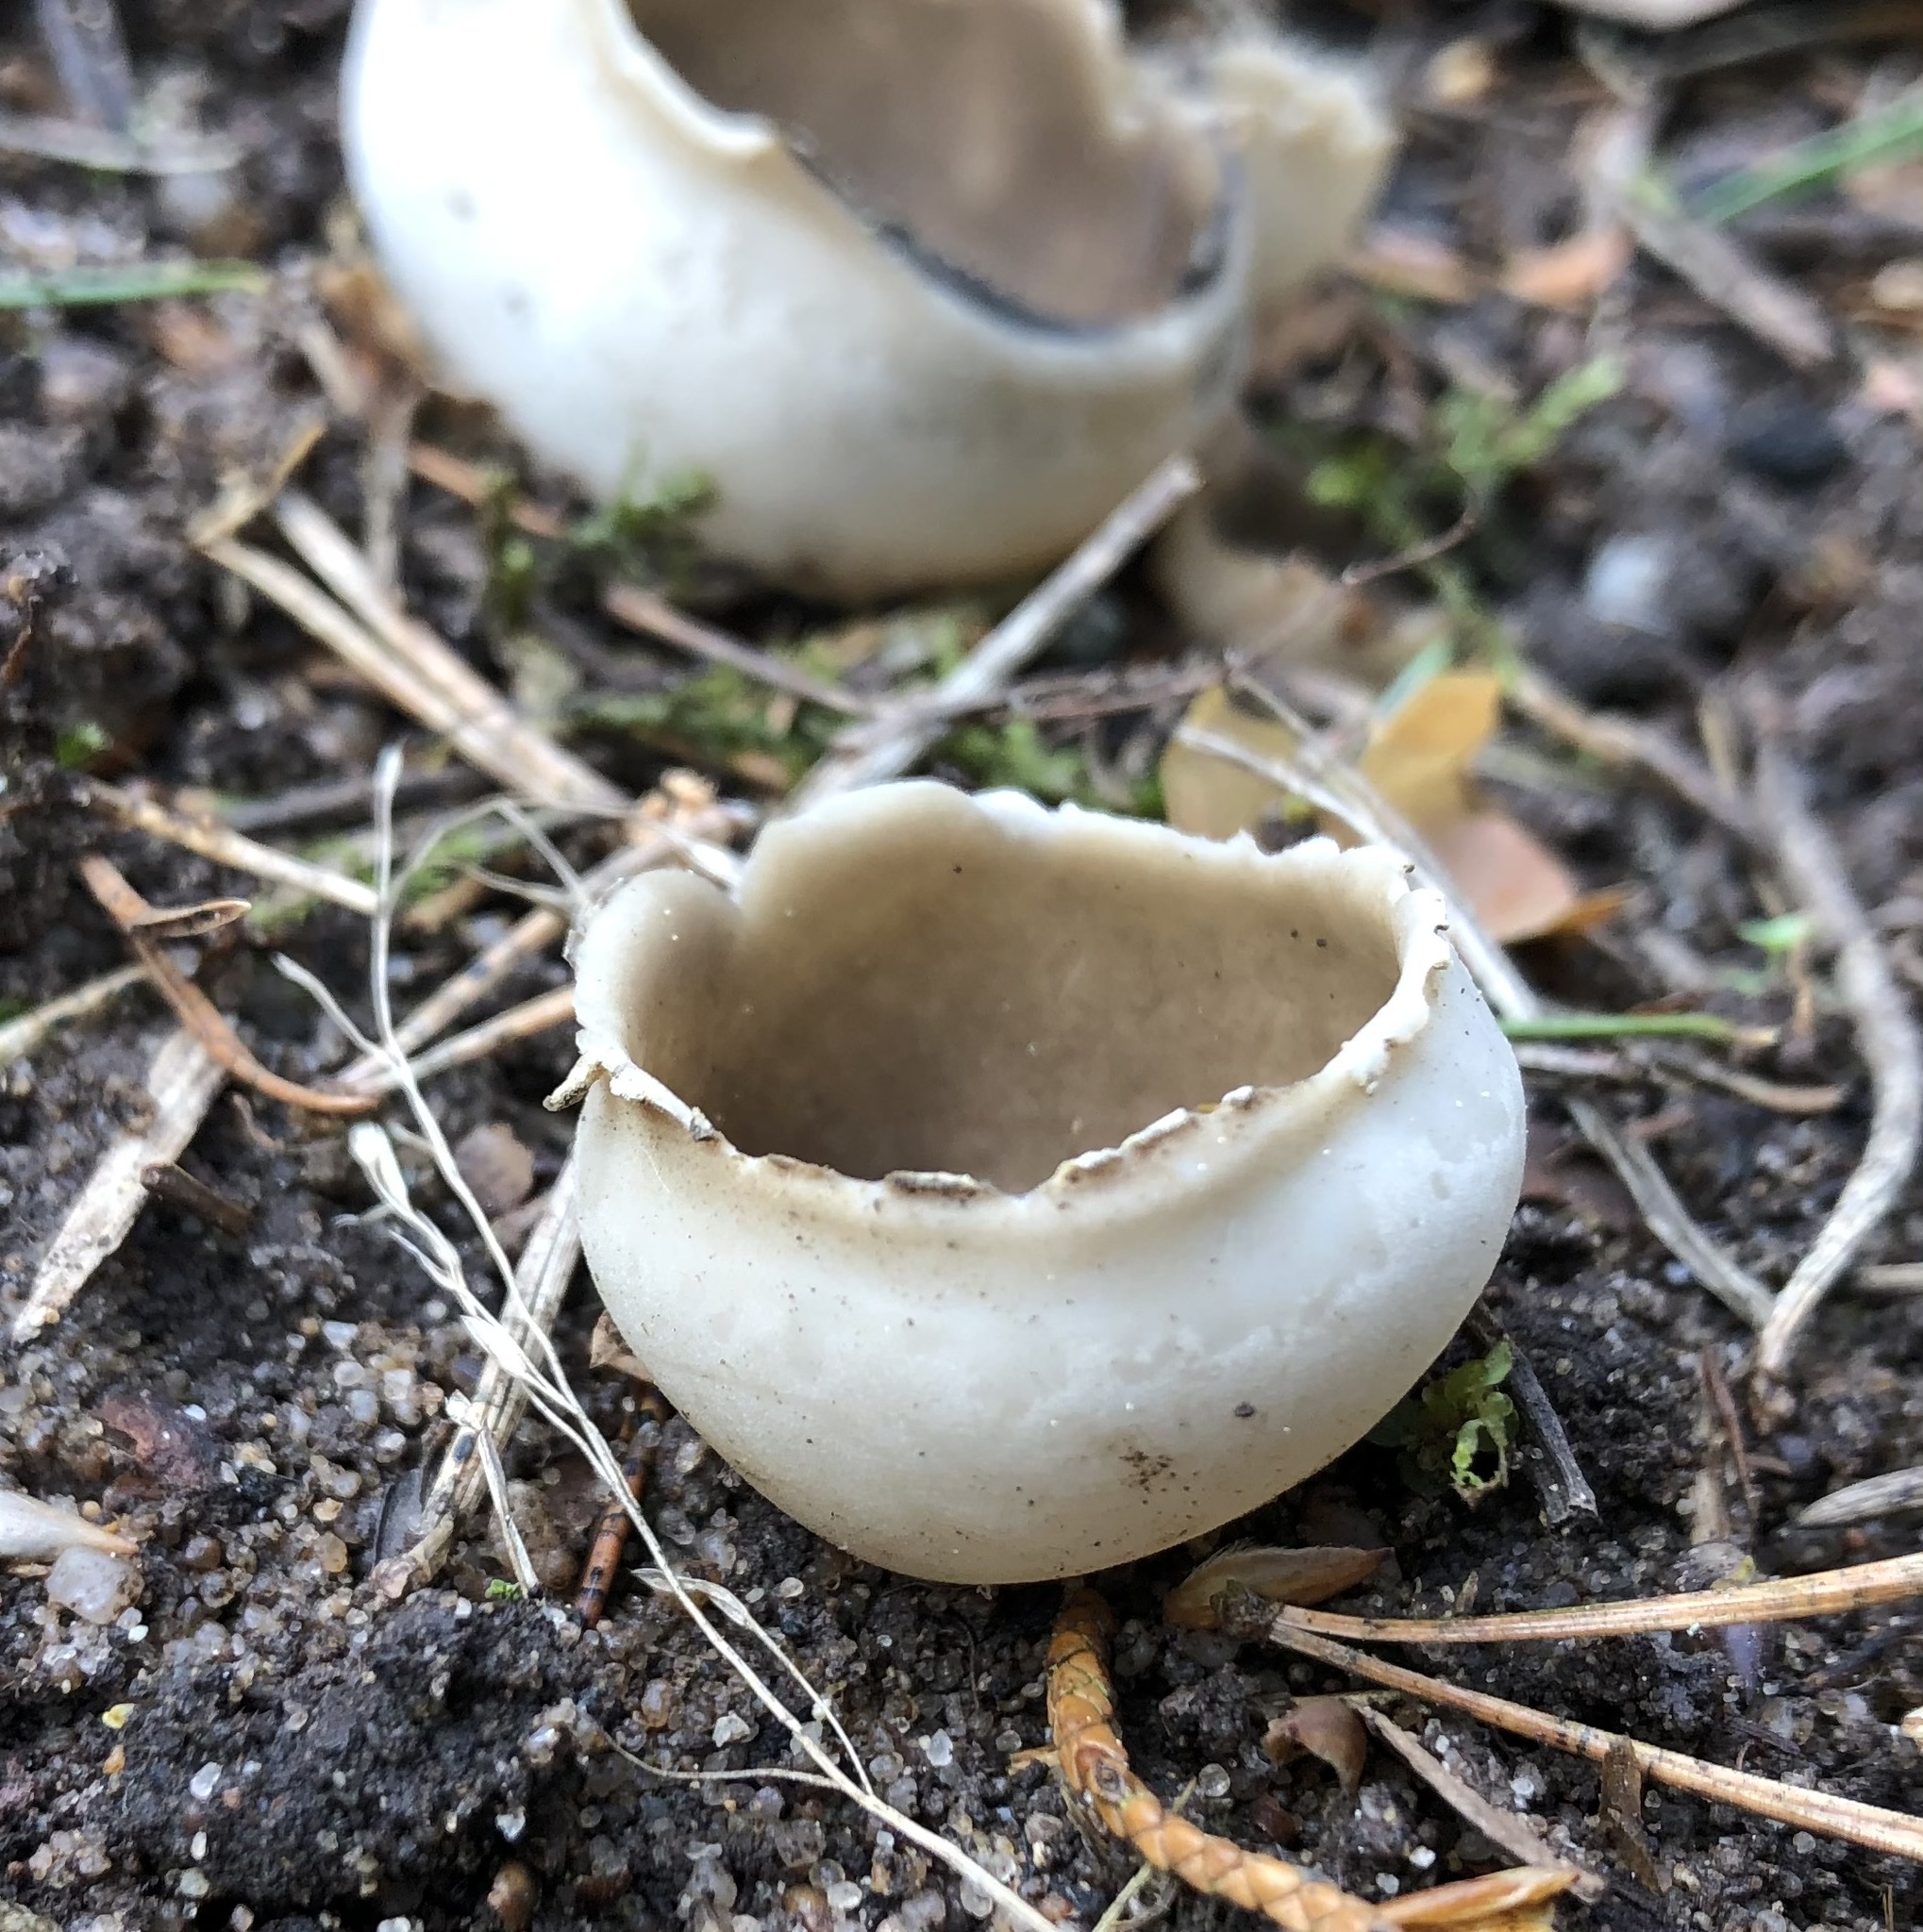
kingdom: Fungi
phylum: Ascomycota
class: Pezizomycetes
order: Pezizales
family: Tarzettaceae
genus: Tarzetta
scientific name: Tarzetta cupularis
